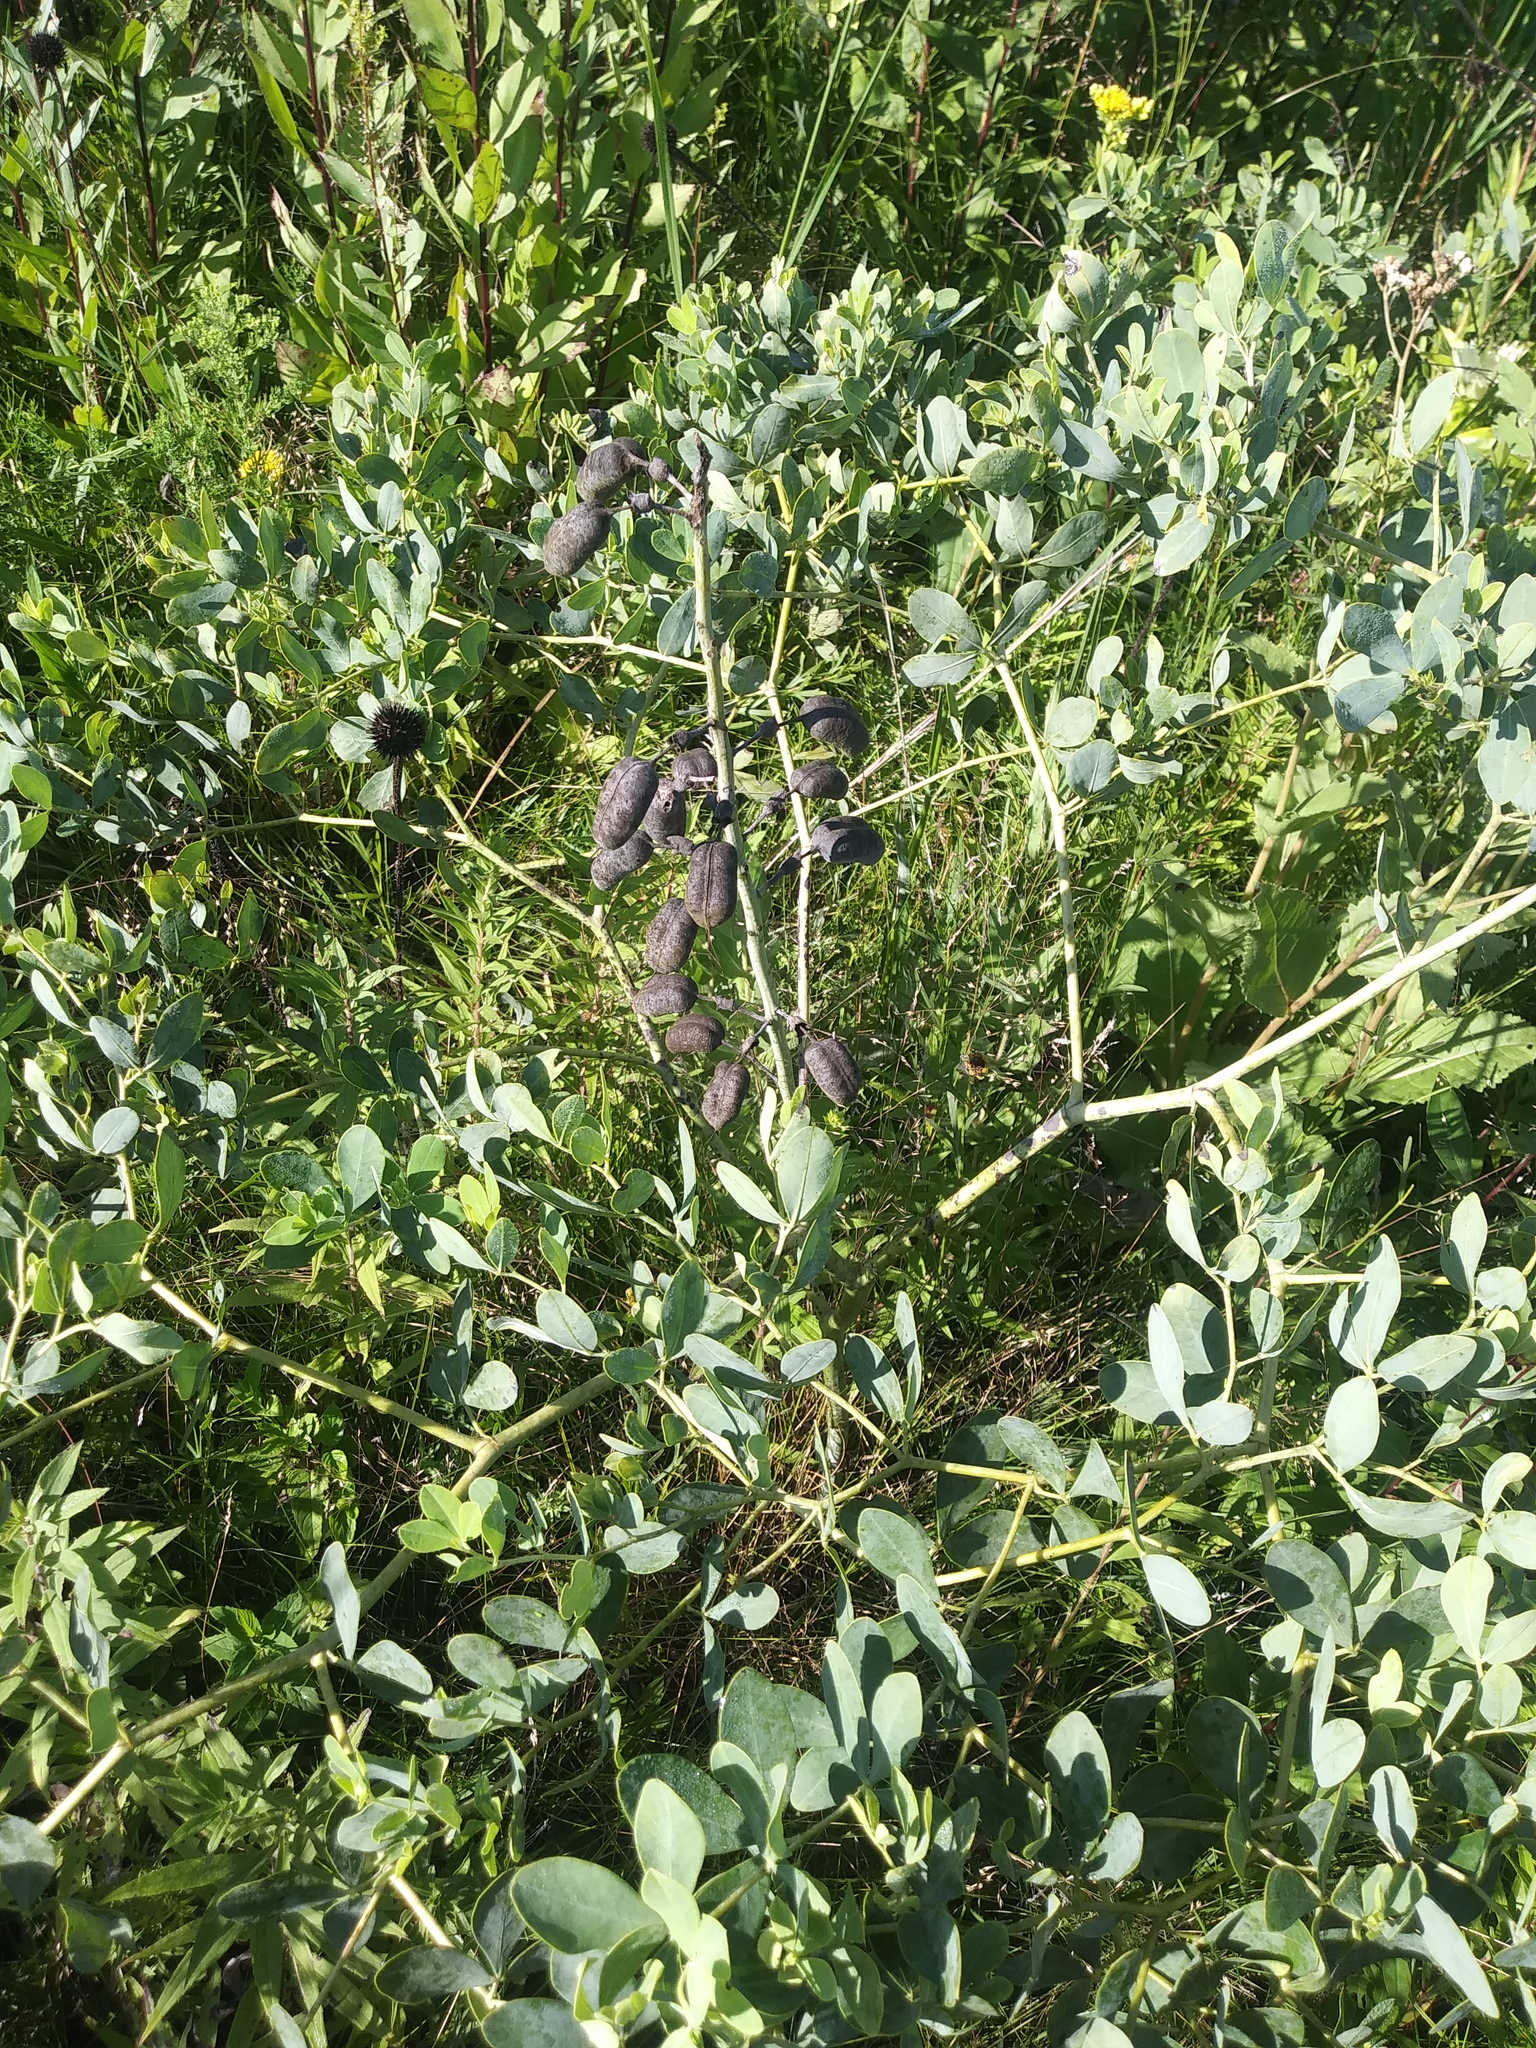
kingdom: Plantae
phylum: Tracheophyta
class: Magnoliopsida
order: Fabales
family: Fabaceae
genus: Baptisia
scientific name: Baptisia alba
